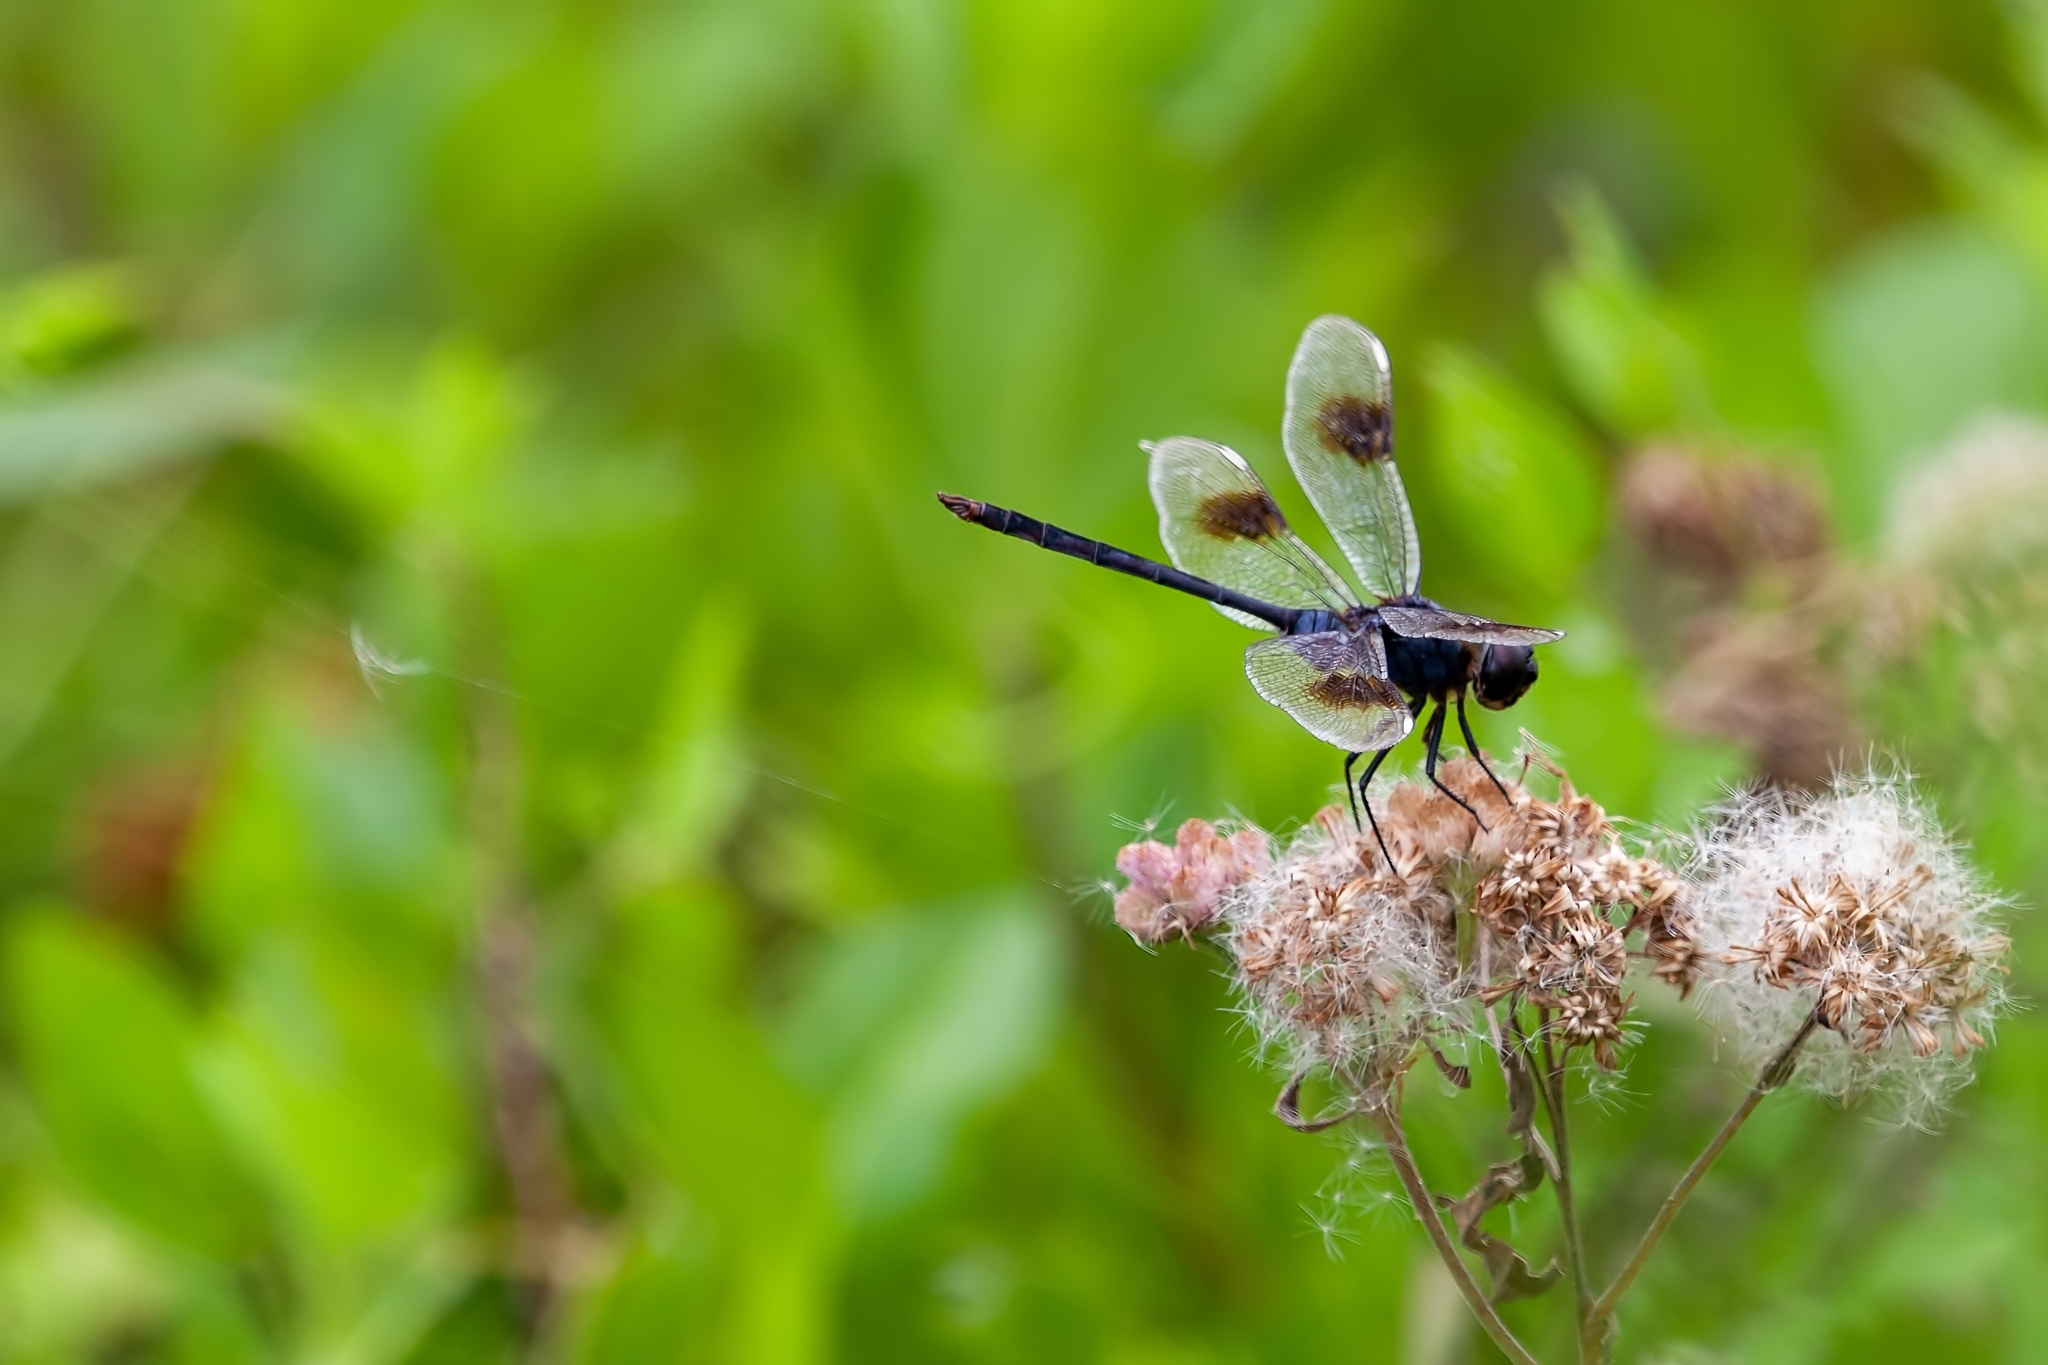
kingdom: Animalia
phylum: Arthropoda
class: Insecta
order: Odonata
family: Libellulidae
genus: Brachymesia
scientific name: Brachymesia gravida
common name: Four-spotted pennant
